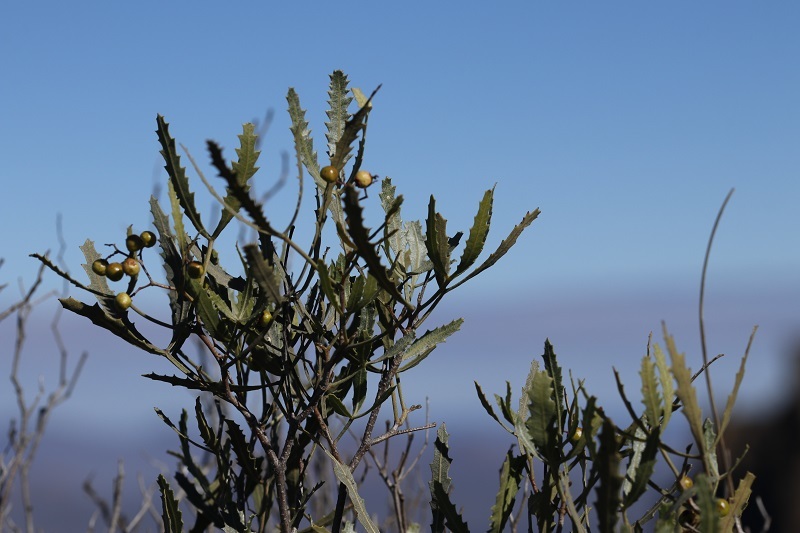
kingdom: Plantae
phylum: Tracheophyta
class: Magnoliopsida
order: Sapindales
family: Anacardiaceae
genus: Searsia
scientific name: Searsia erosa
